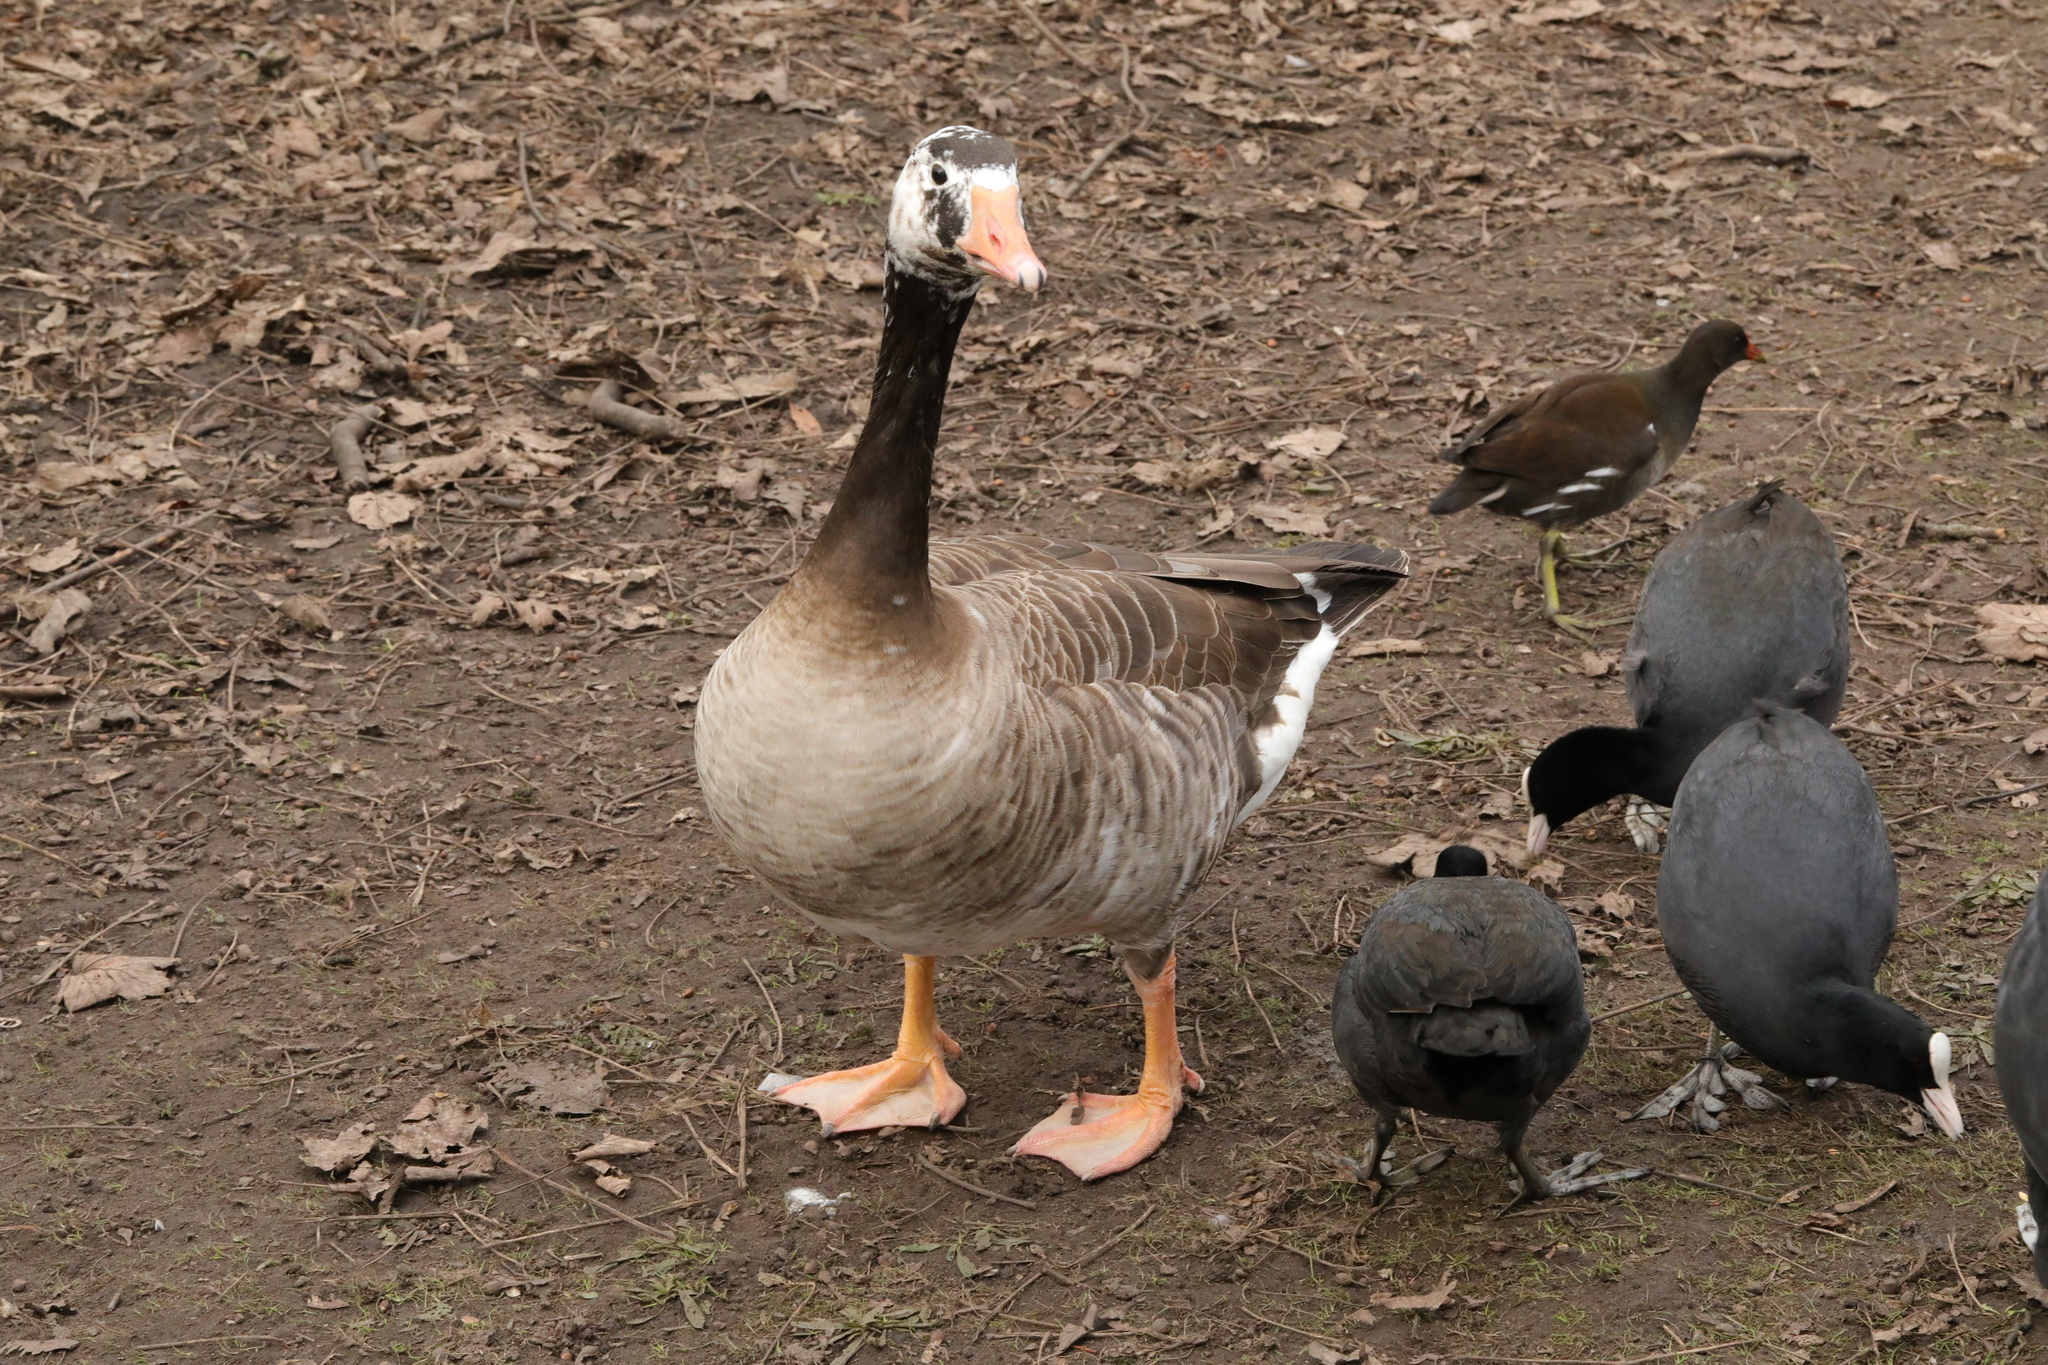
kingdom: Animalia
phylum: Chordata
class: Aves
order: Anseriformes
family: Anatidae
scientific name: Anatidae
